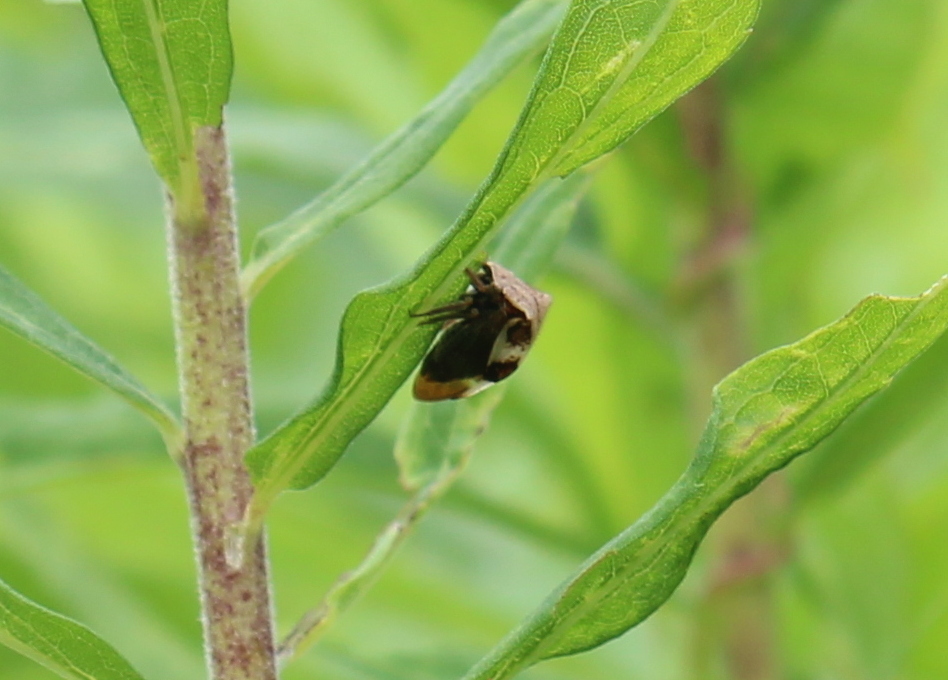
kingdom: Animalia
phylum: Arthropoda
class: Insecta
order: Hemiptera
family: Membracidae
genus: Stictocephala
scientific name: Stictocephala diceros
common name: Two-horned treehopper
